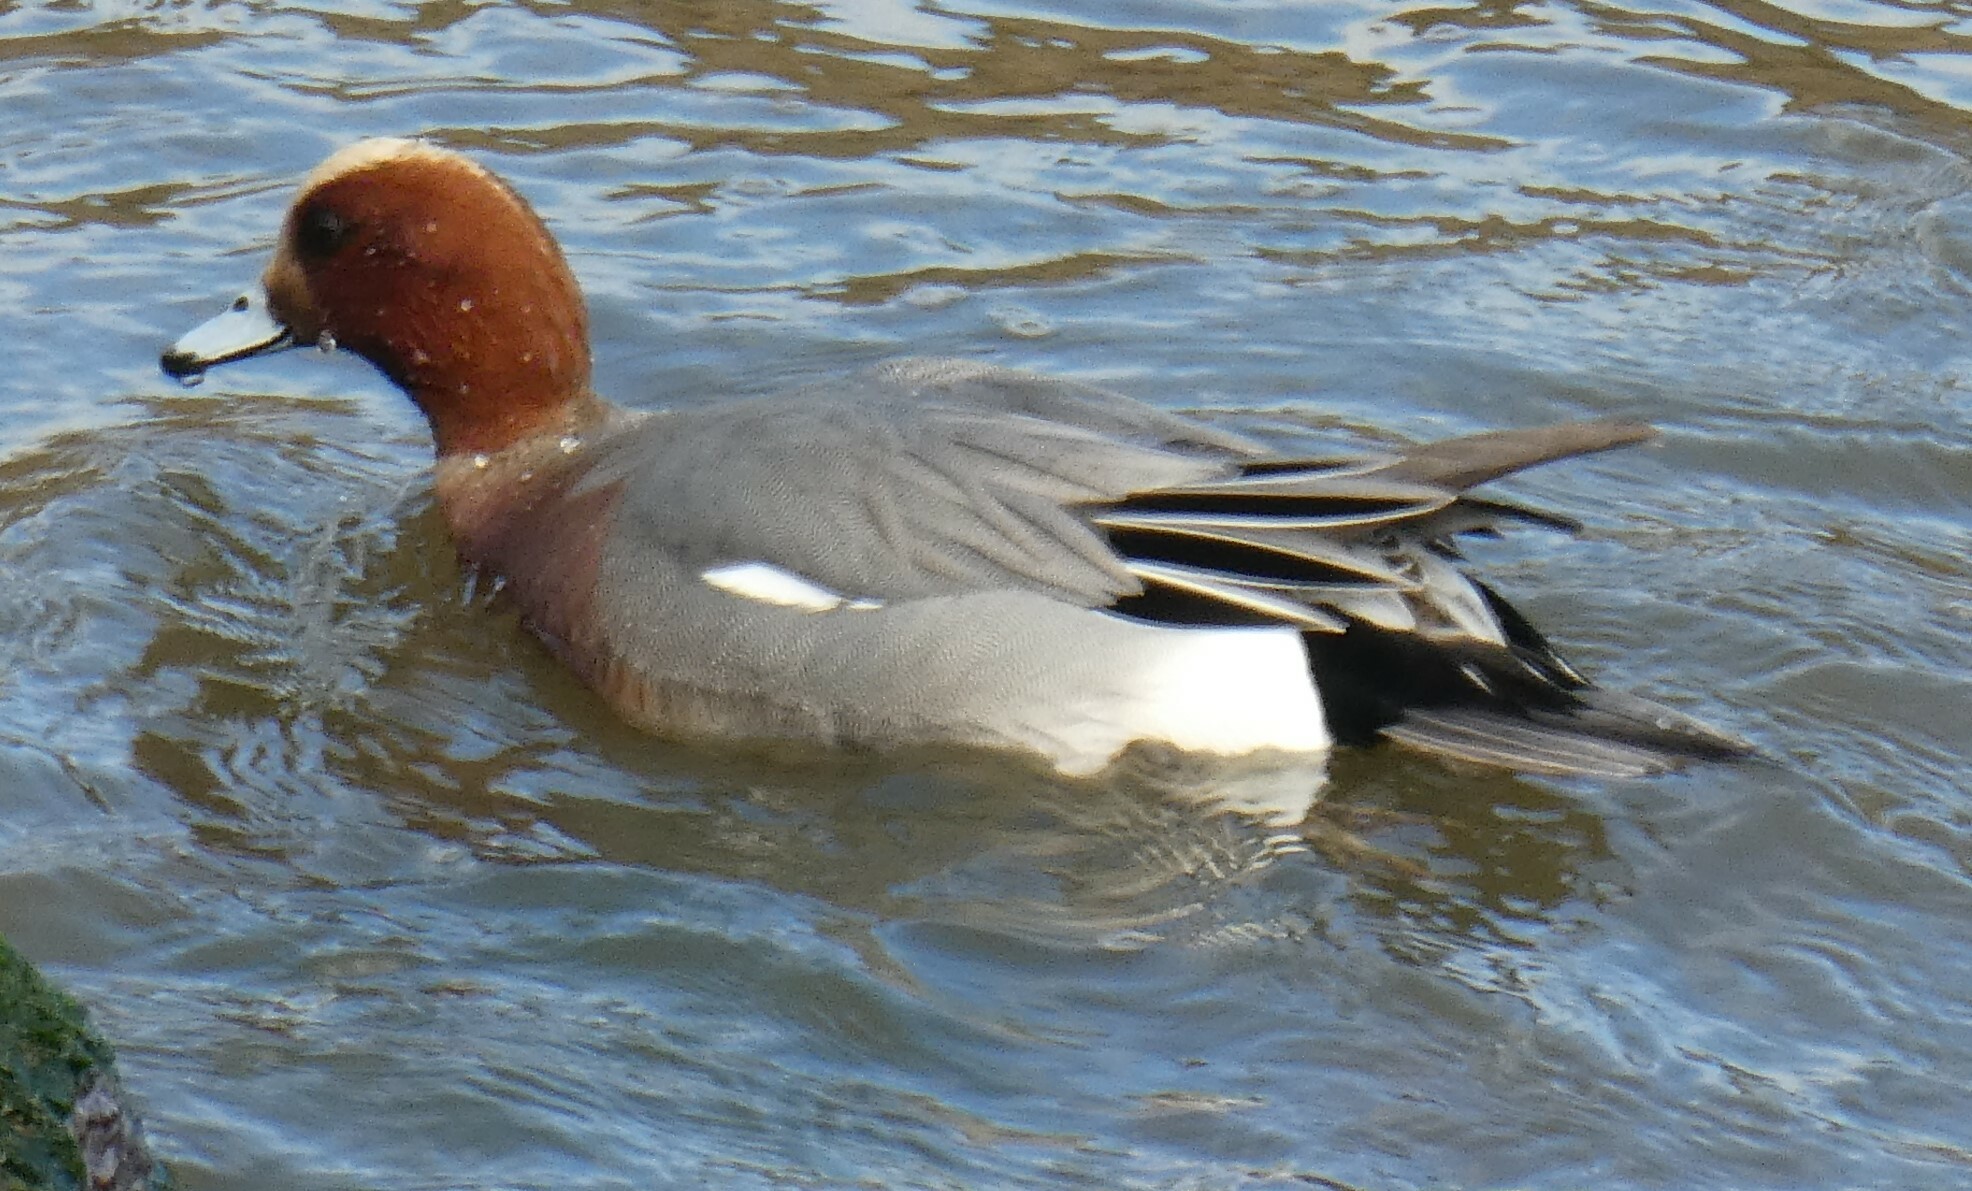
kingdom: Animalia
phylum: Chordata
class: Aves
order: Anseriformes
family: Anatidae
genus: Mareca
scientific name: Mareca penelope
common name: Eurasian wigeon
